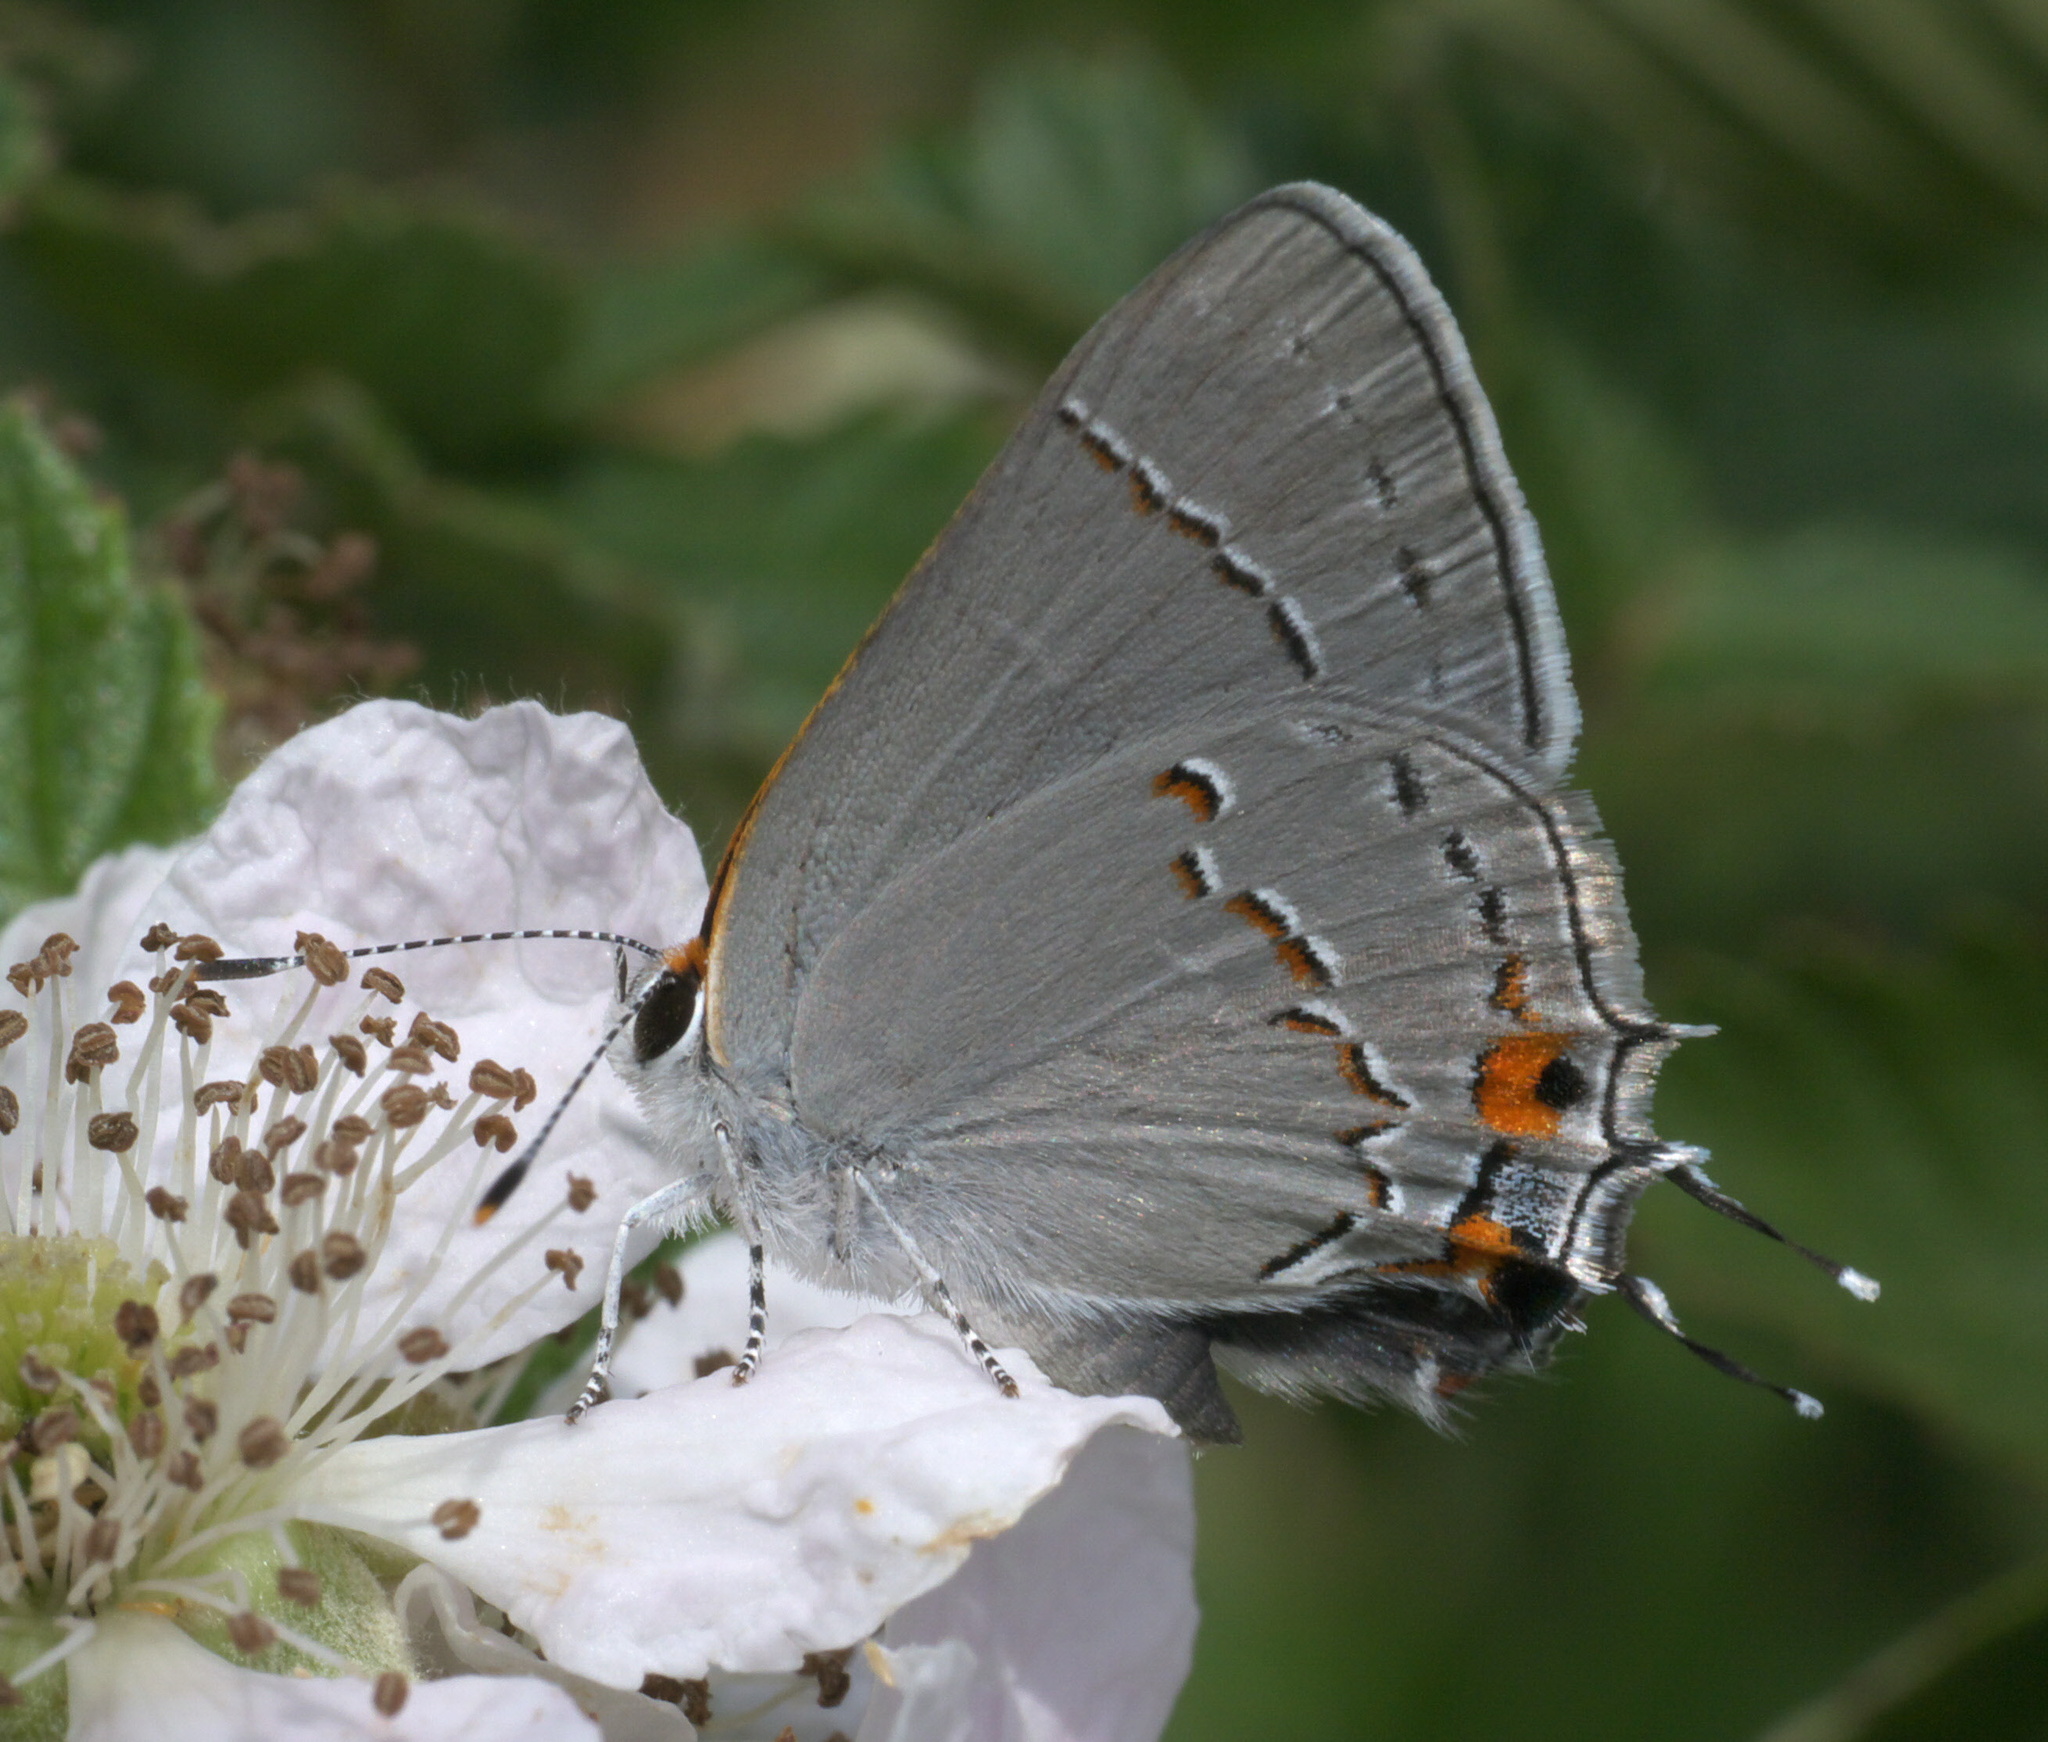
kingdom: Animalia
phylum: Arthropoda
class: Insecta
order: Lepidoptera
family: Lycaenidae
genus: Strymon
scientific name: Strymon melinus
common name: Gray hairstreak
